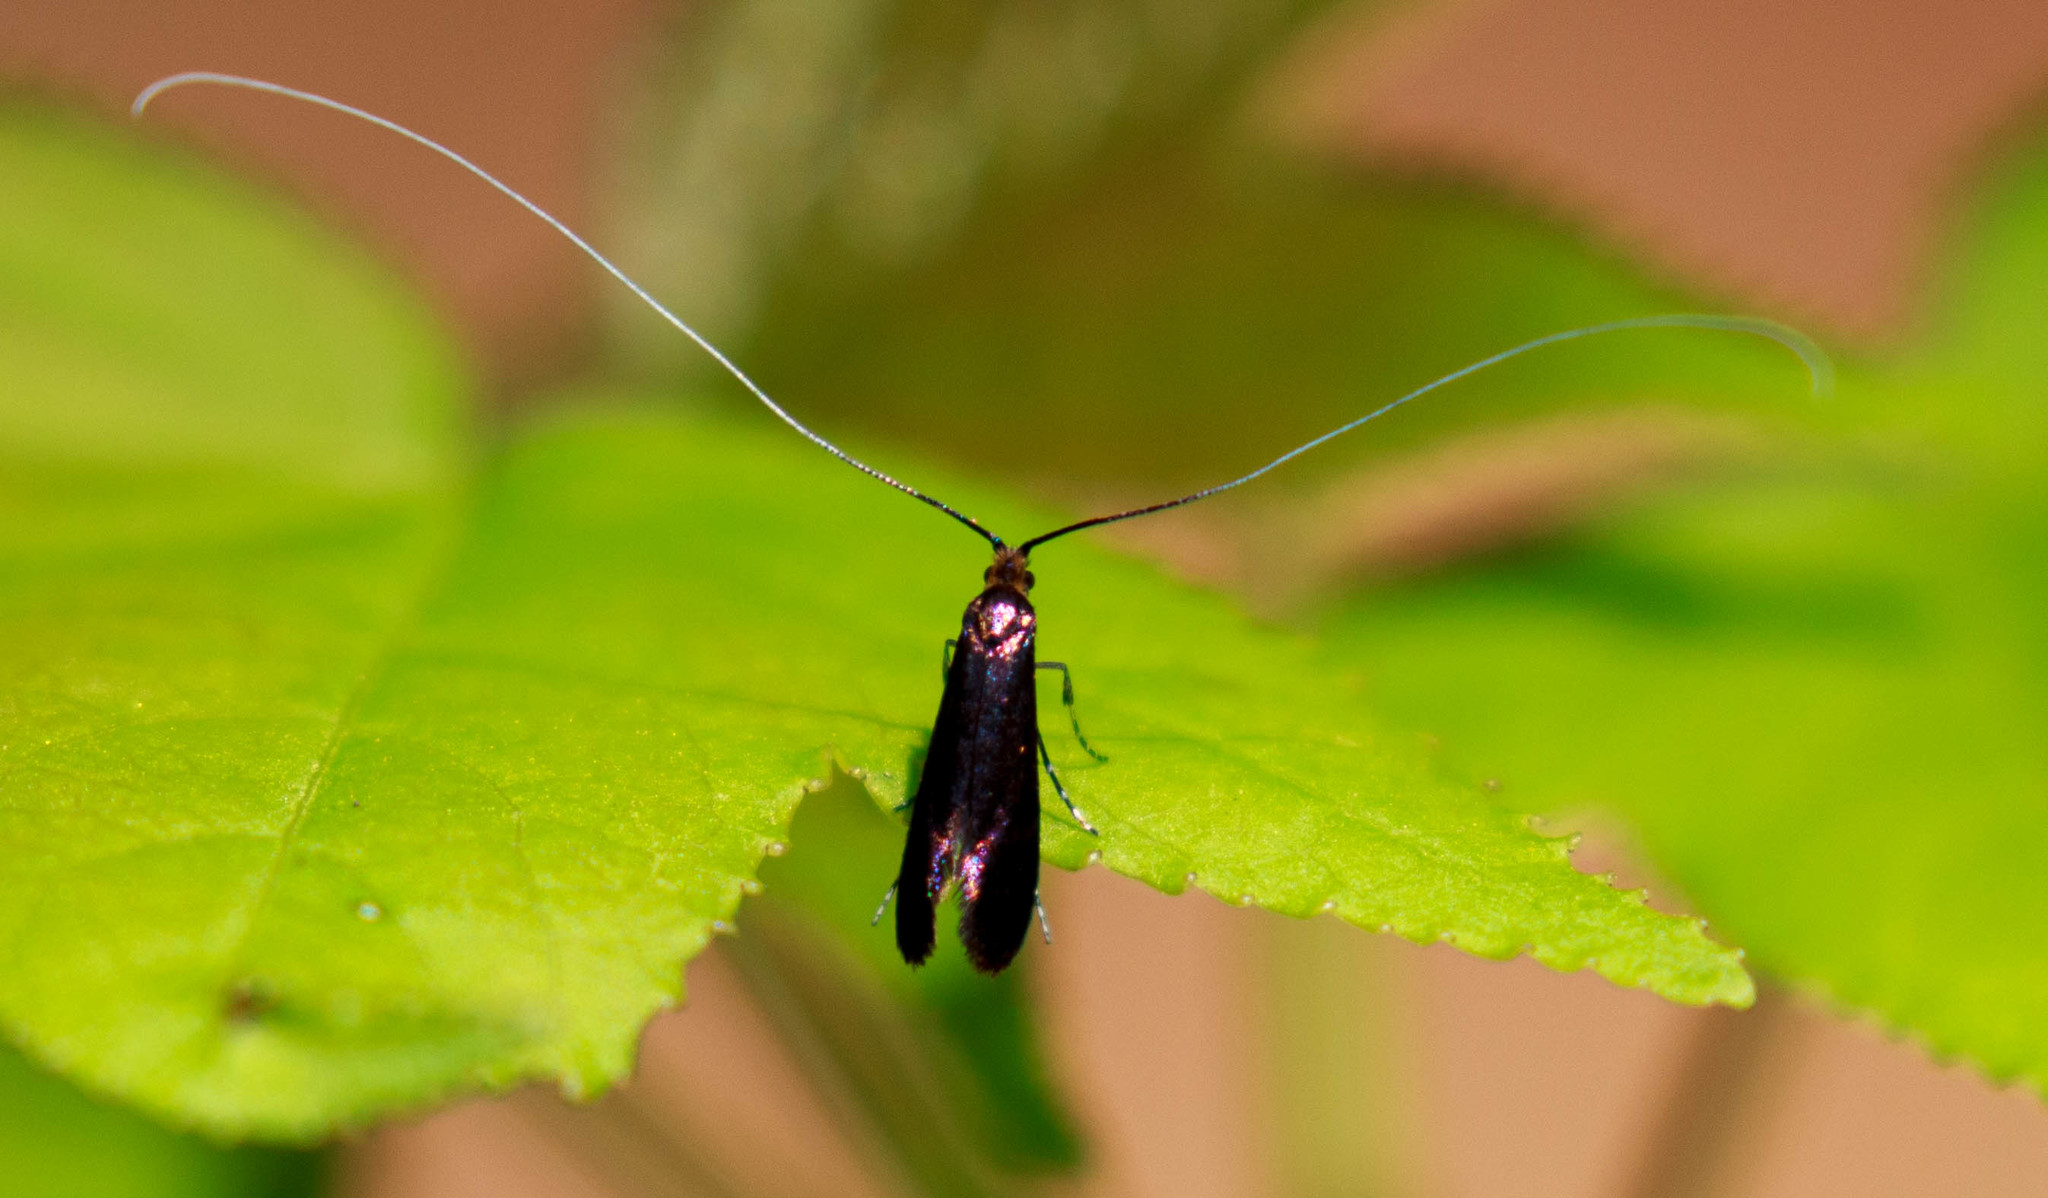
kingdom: Animalia
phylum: Arthropoda
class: Insecta
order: Lepidoptera
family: Adelidae
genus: Adela
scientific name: Adela caeruleella
